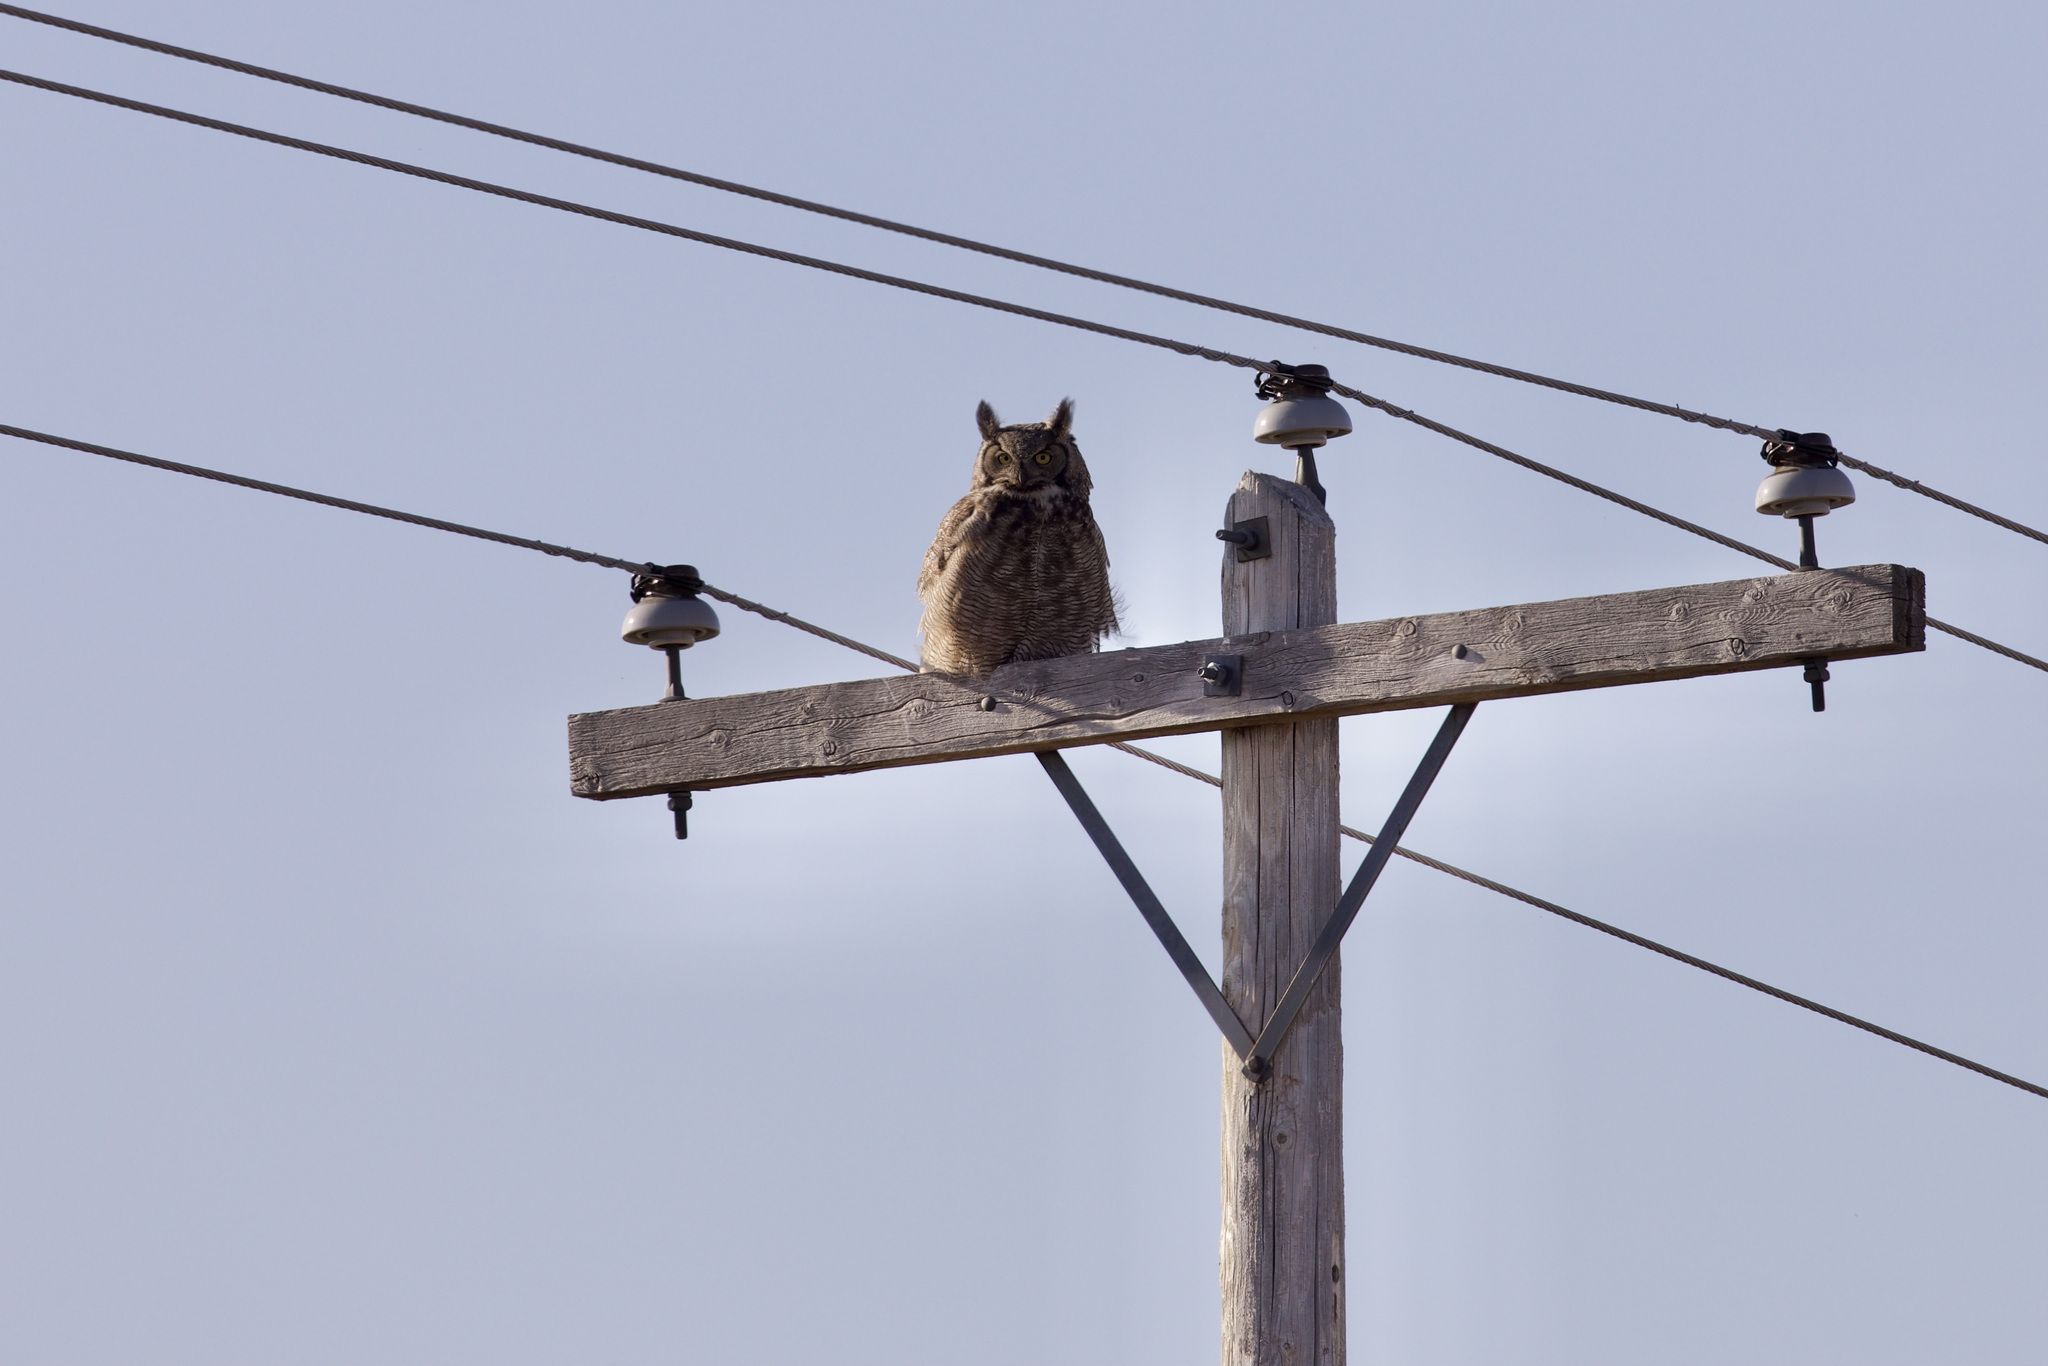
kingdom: Animalia
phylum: Chordata
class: Aves
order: Strigiformes
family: Strigidae
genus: Bubo
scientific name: Bubo virginianus
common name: Great horned owl
